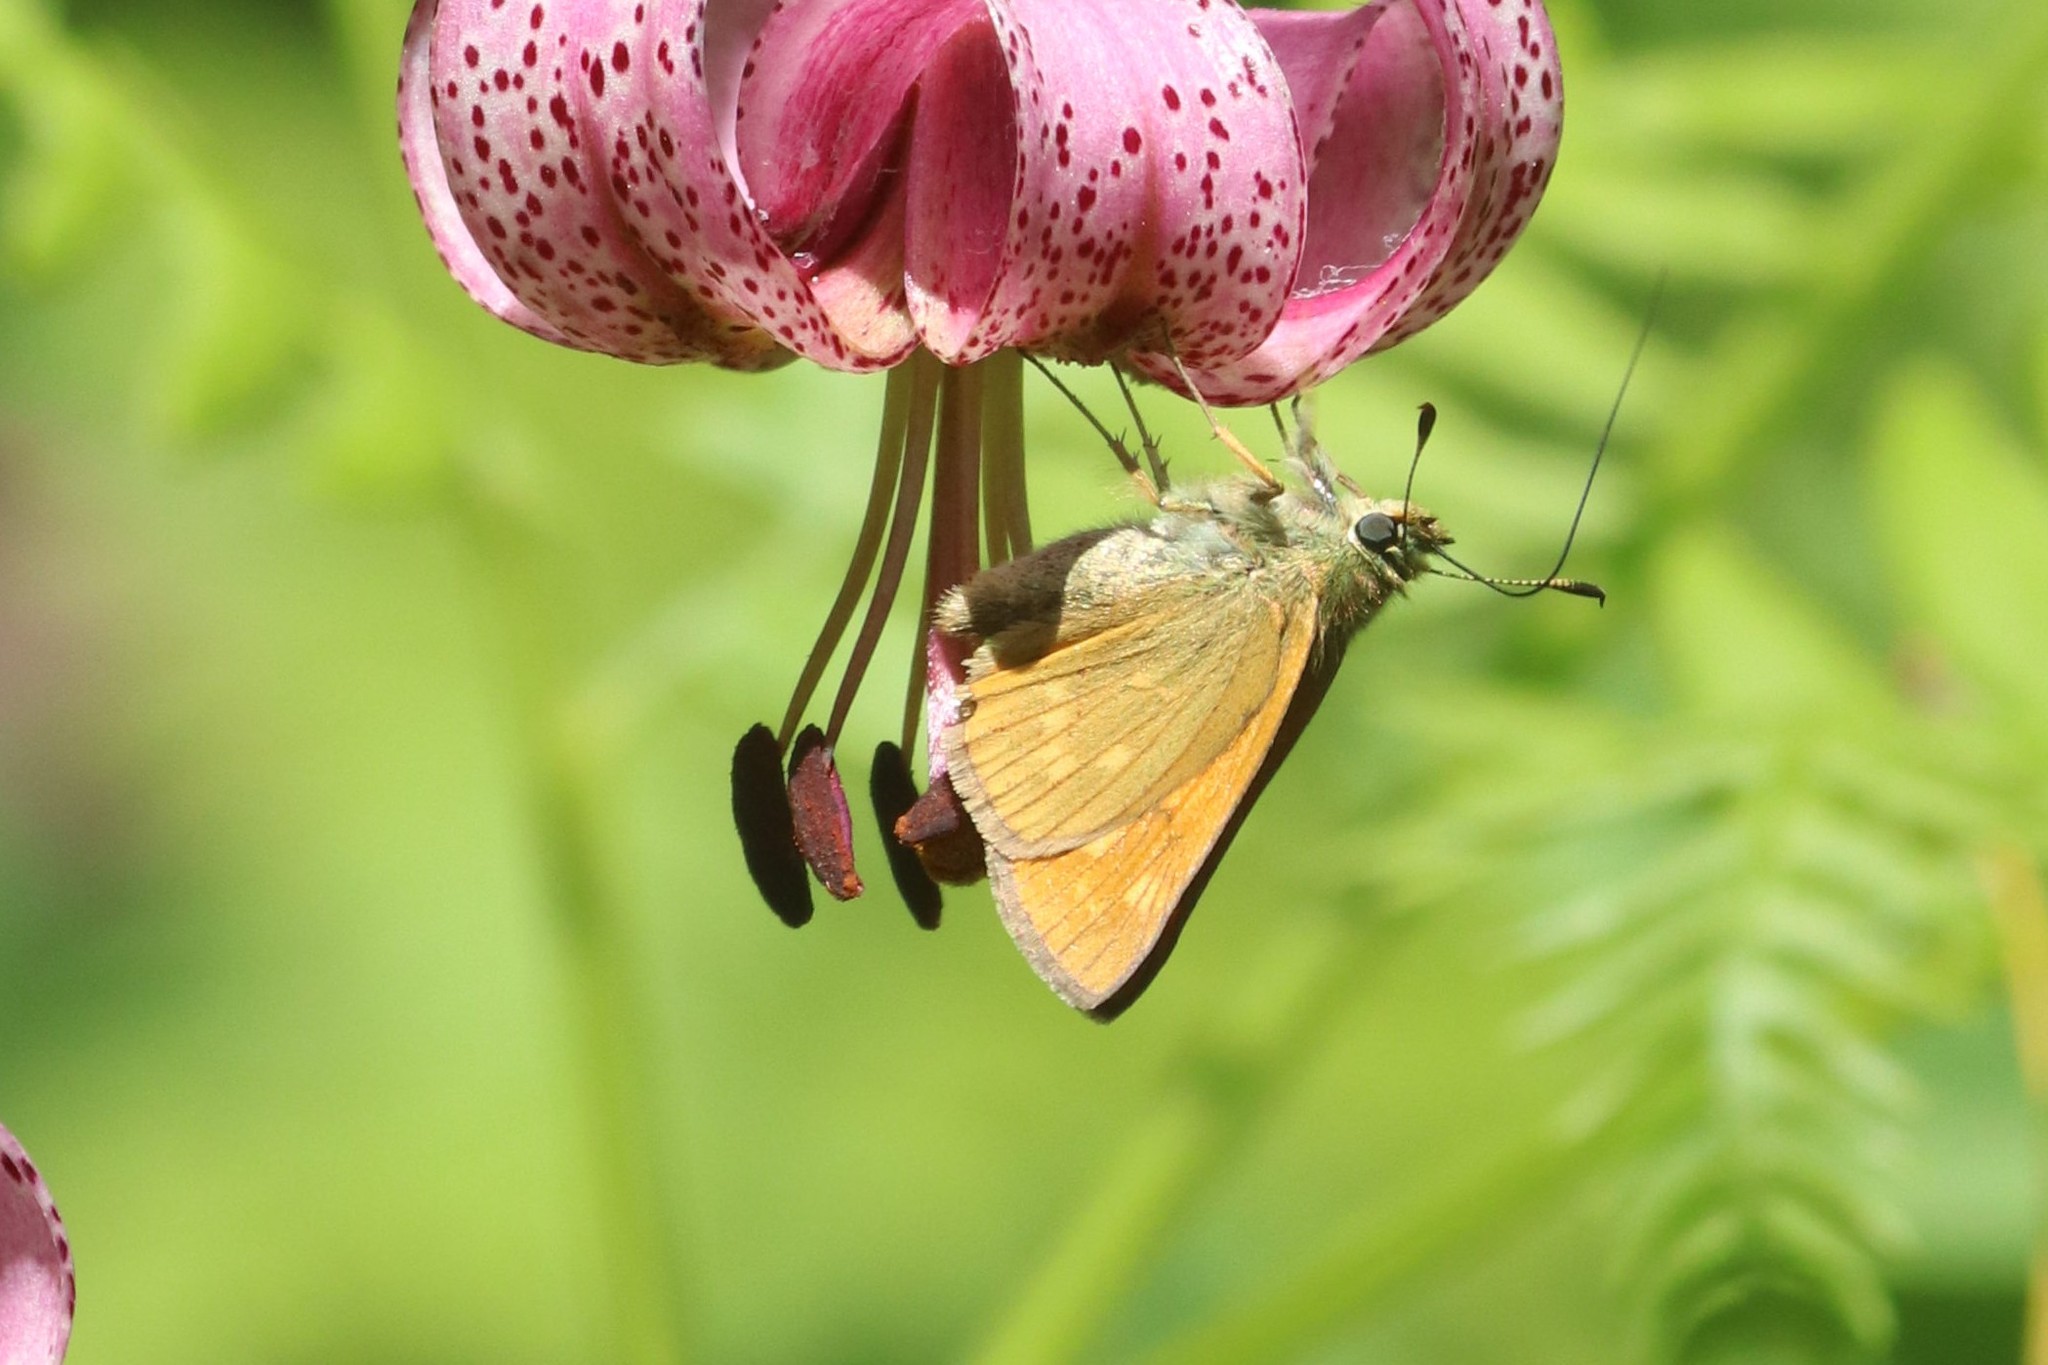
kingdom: Animalia
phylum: Arthropoda
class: Insecta
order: Lepidoptera
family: Hesperiidae
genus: Ochlodes
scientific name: Ochlodes venata
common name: Large skipper
